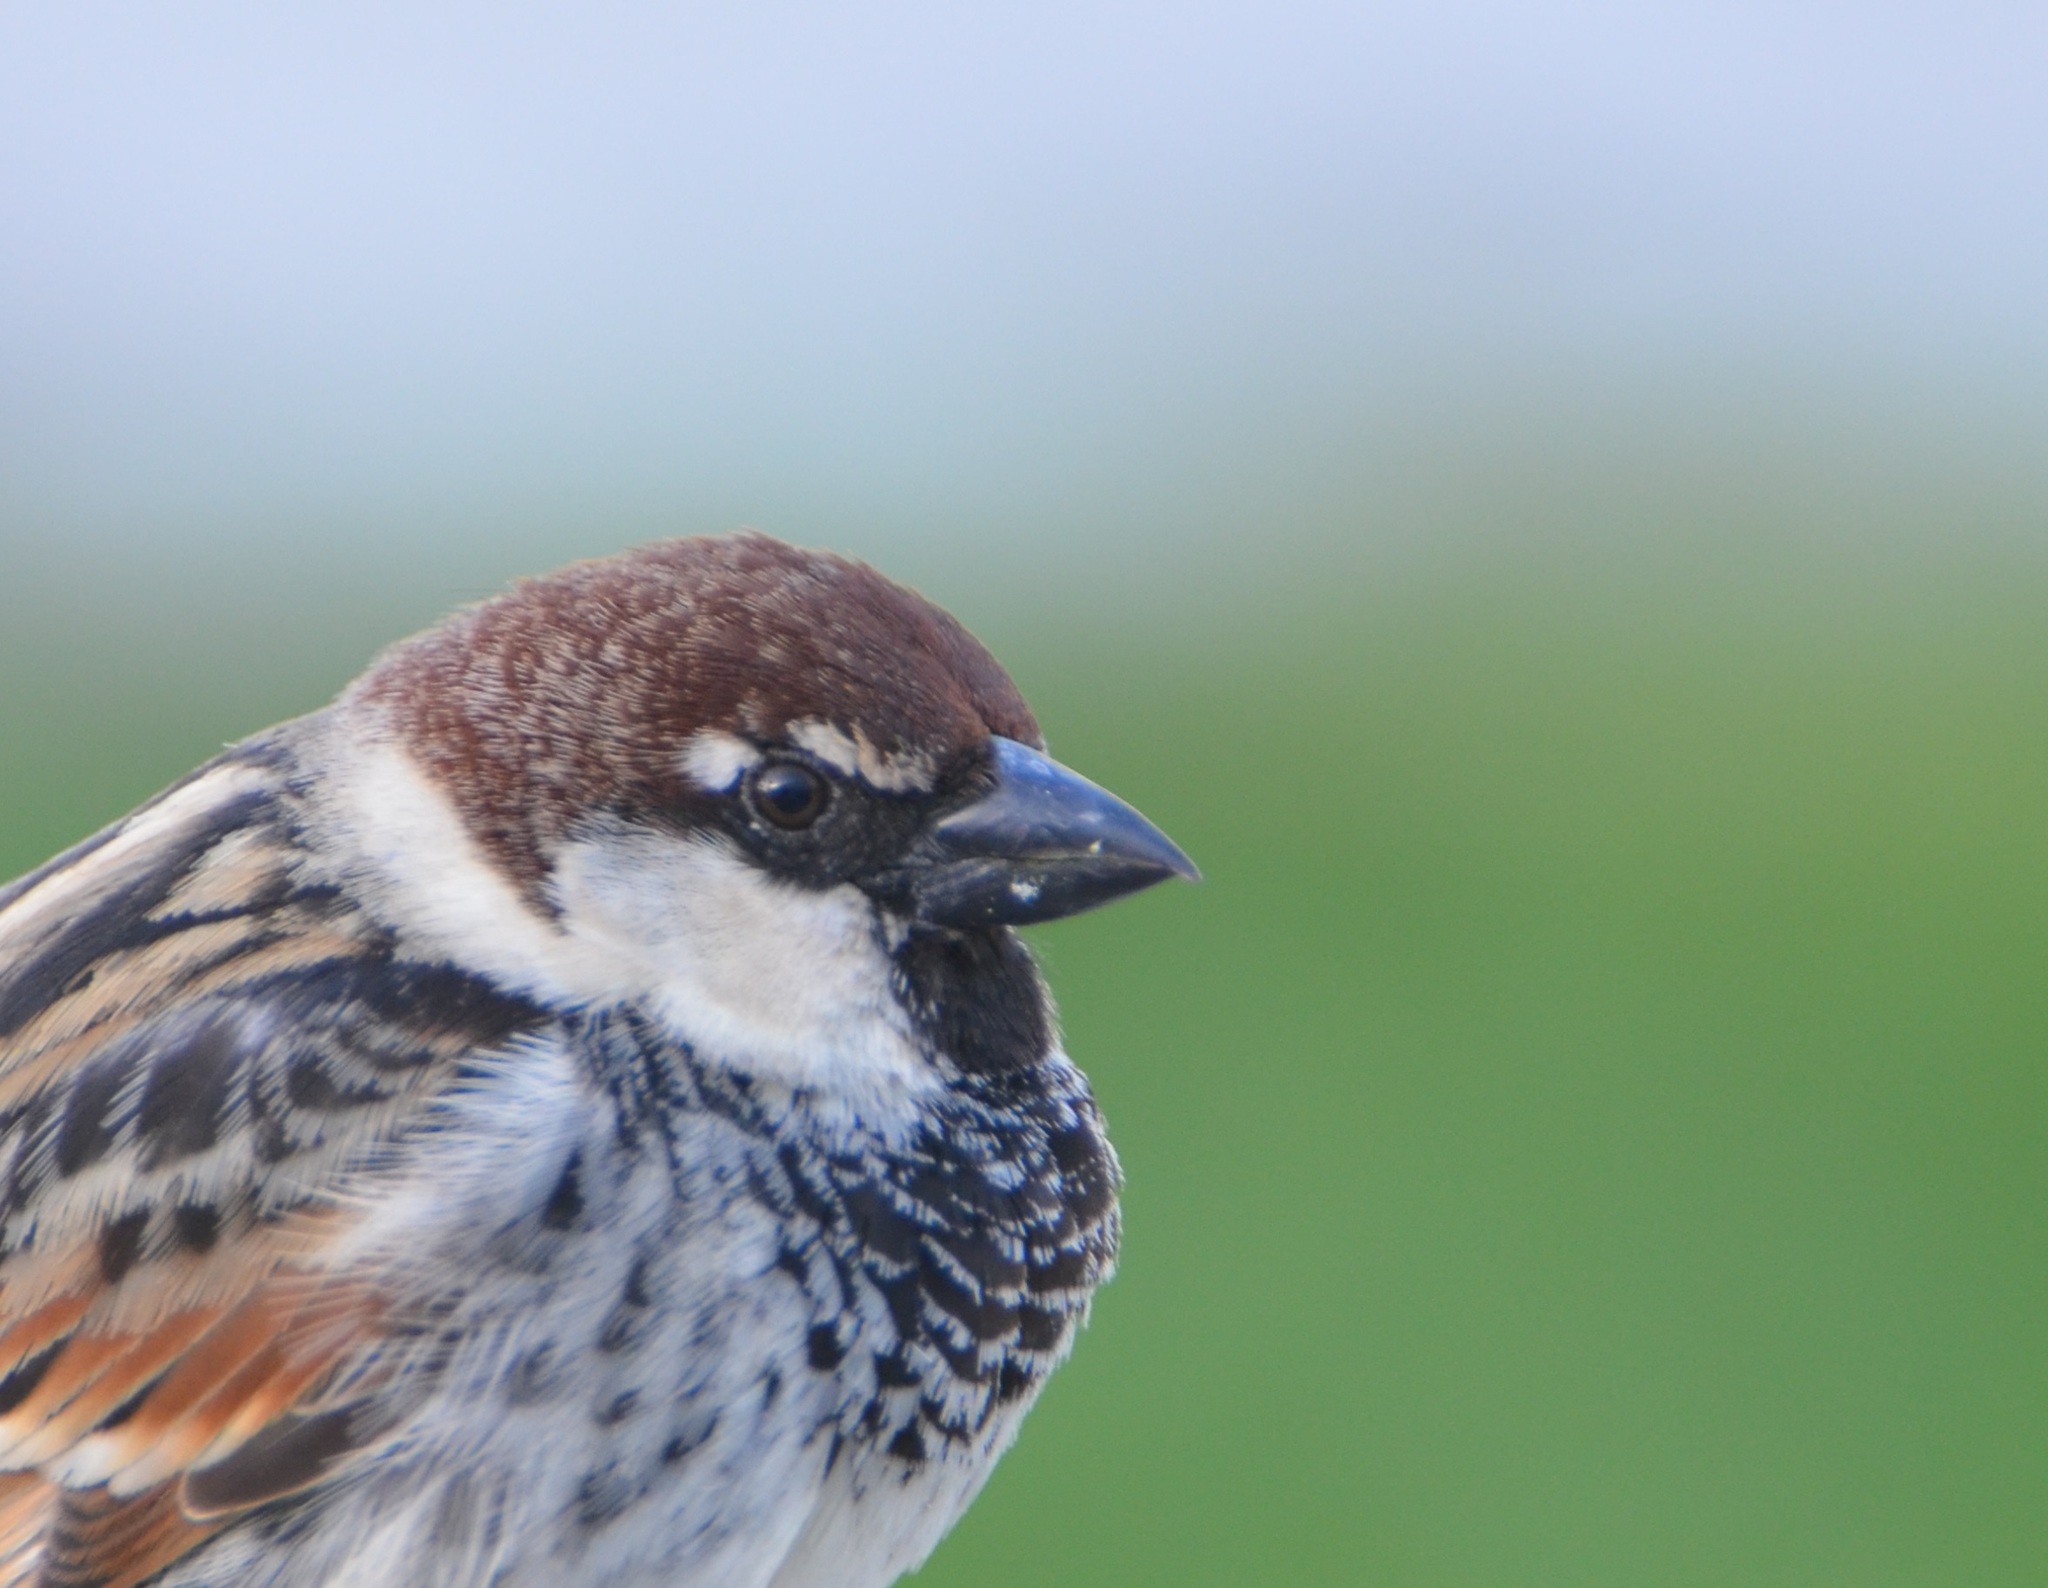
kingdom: Animalia
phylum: Chordata
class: Aves
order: Passeriformes
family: Passeridae
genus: Passer
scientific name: Passer hispaniolensis
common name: Spanish sparrow
